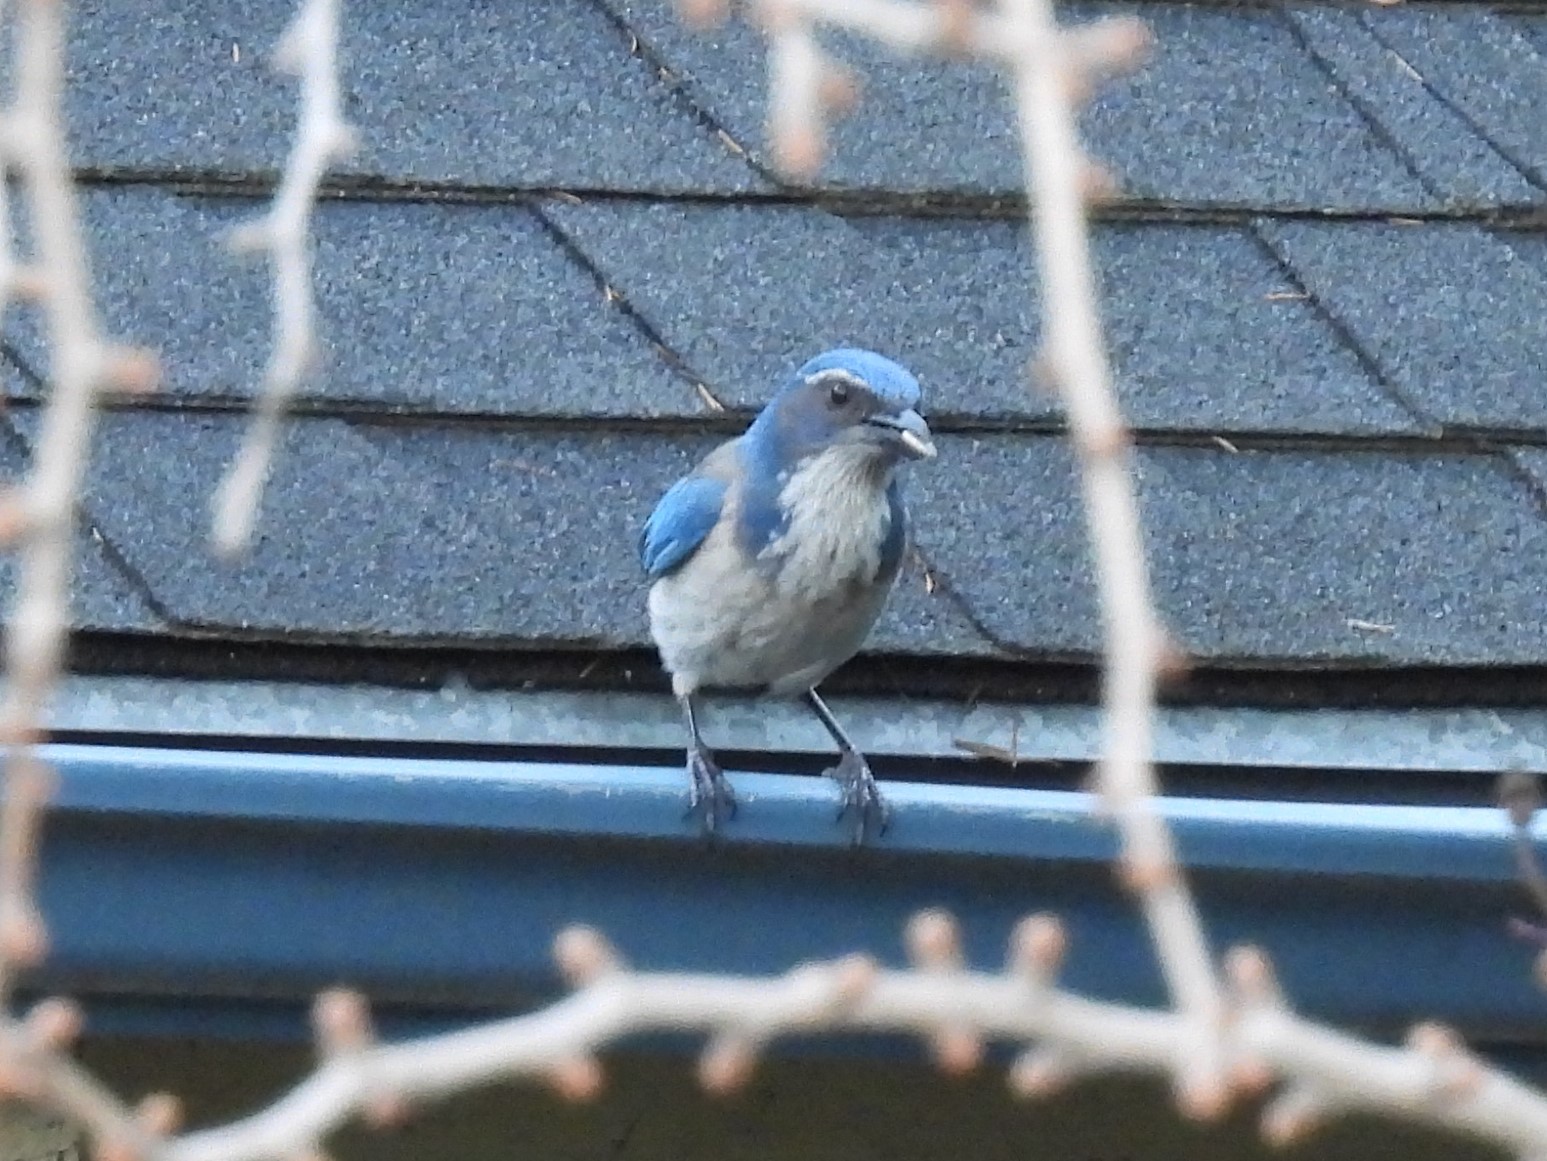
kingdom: Animalia
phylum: Chordata
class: Aves
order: Passeriformes
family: Corvidae
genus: Aphelocoma
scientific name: Aphelocoma californica
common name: California scrub-jay
